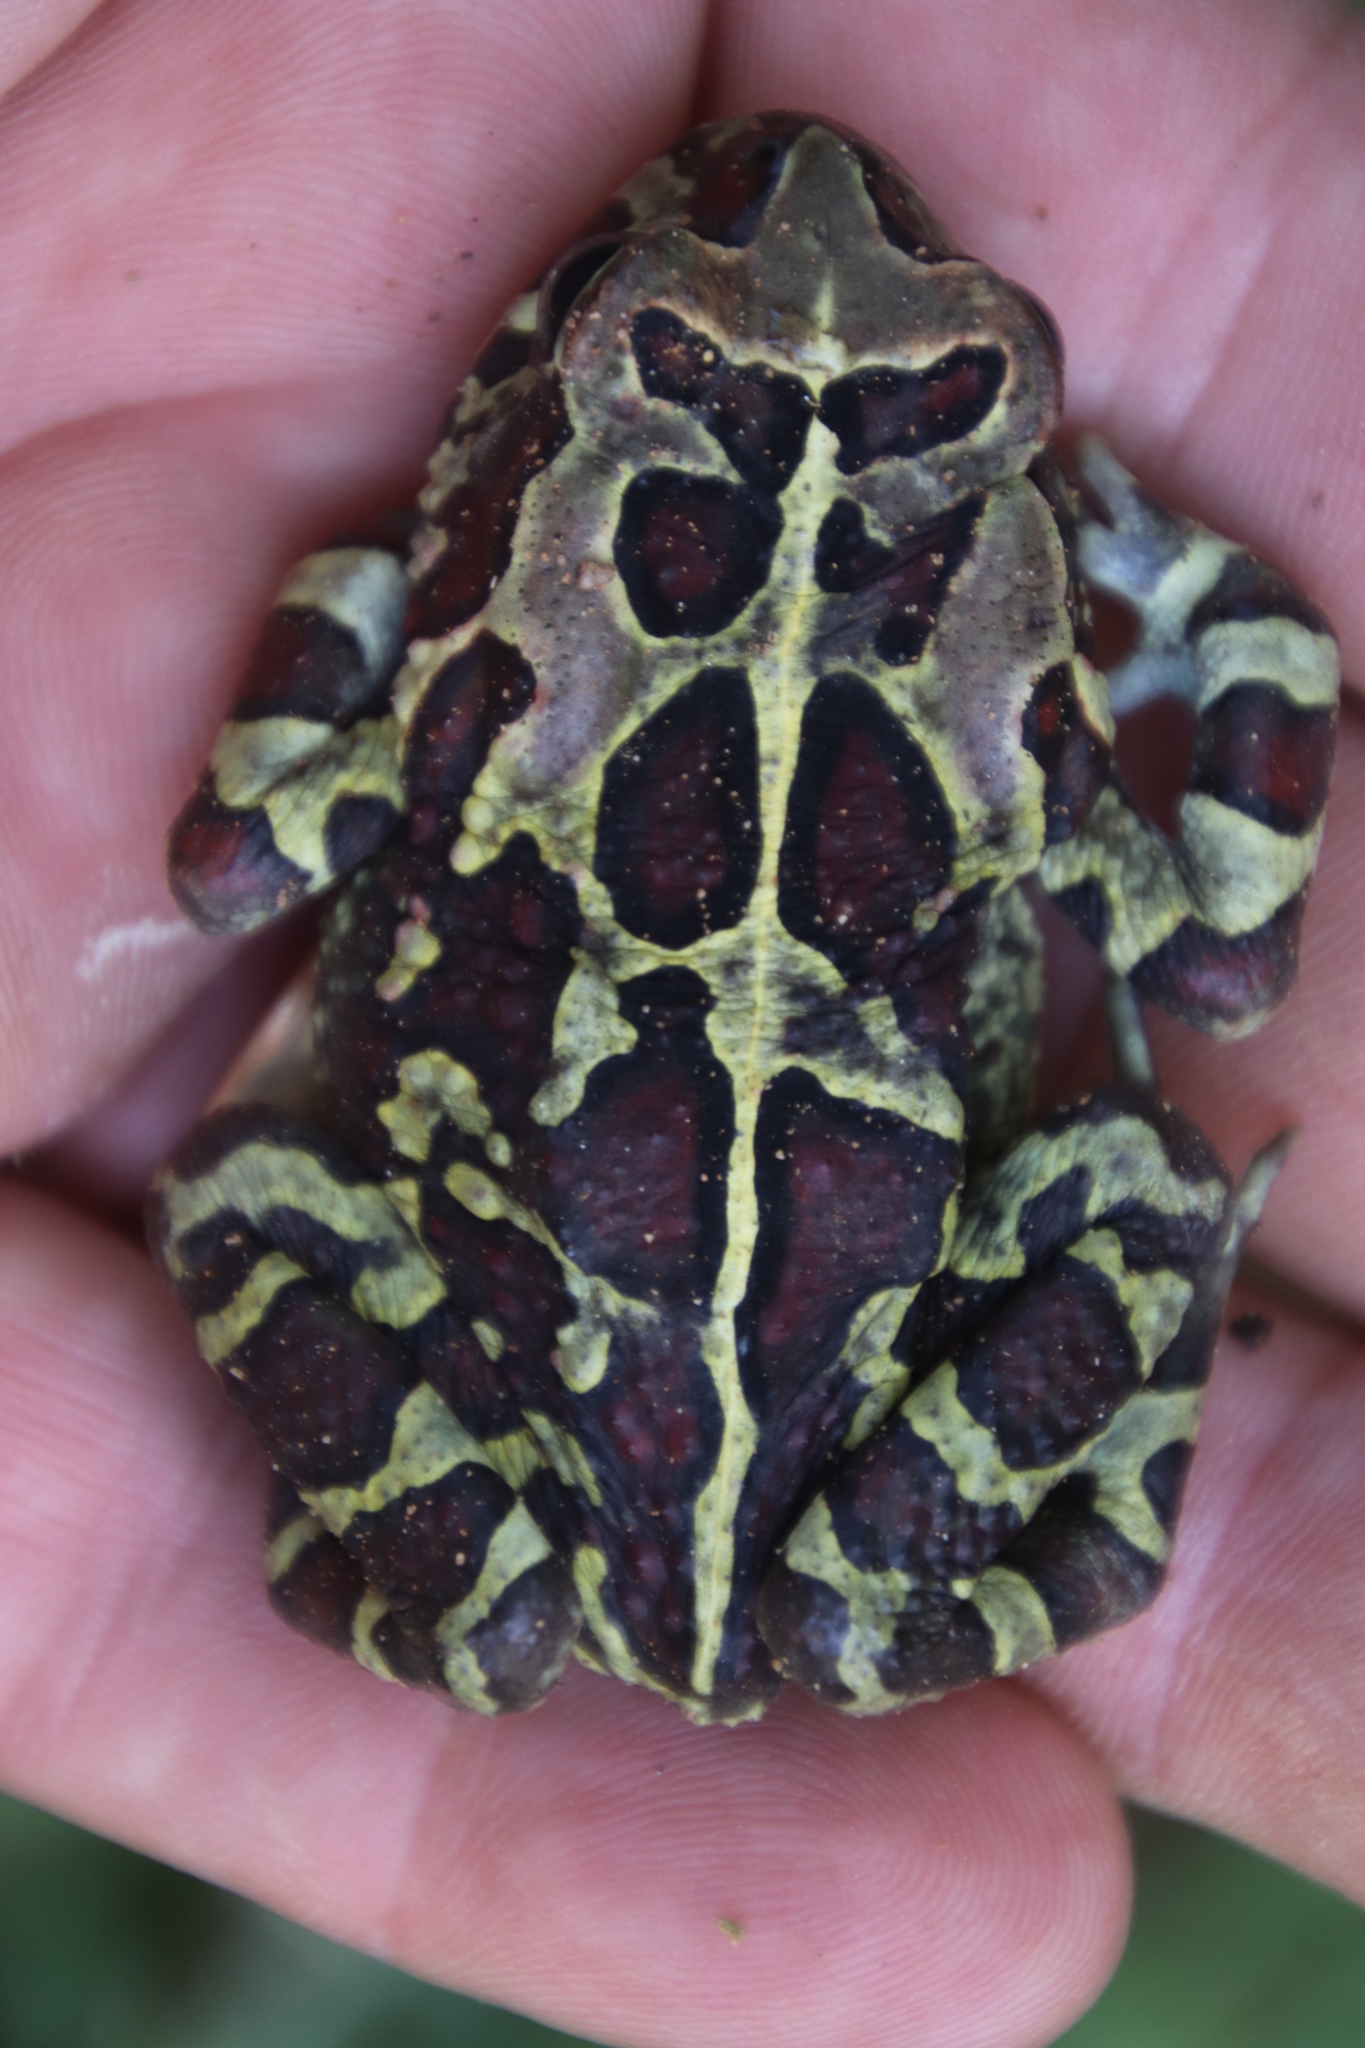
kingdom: Animalia
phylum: Chordata
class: Amphibia
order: Anura
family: Bufonidae
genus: Sclerophrys
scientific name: Sclerophrys pantherina
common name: Panther toad
